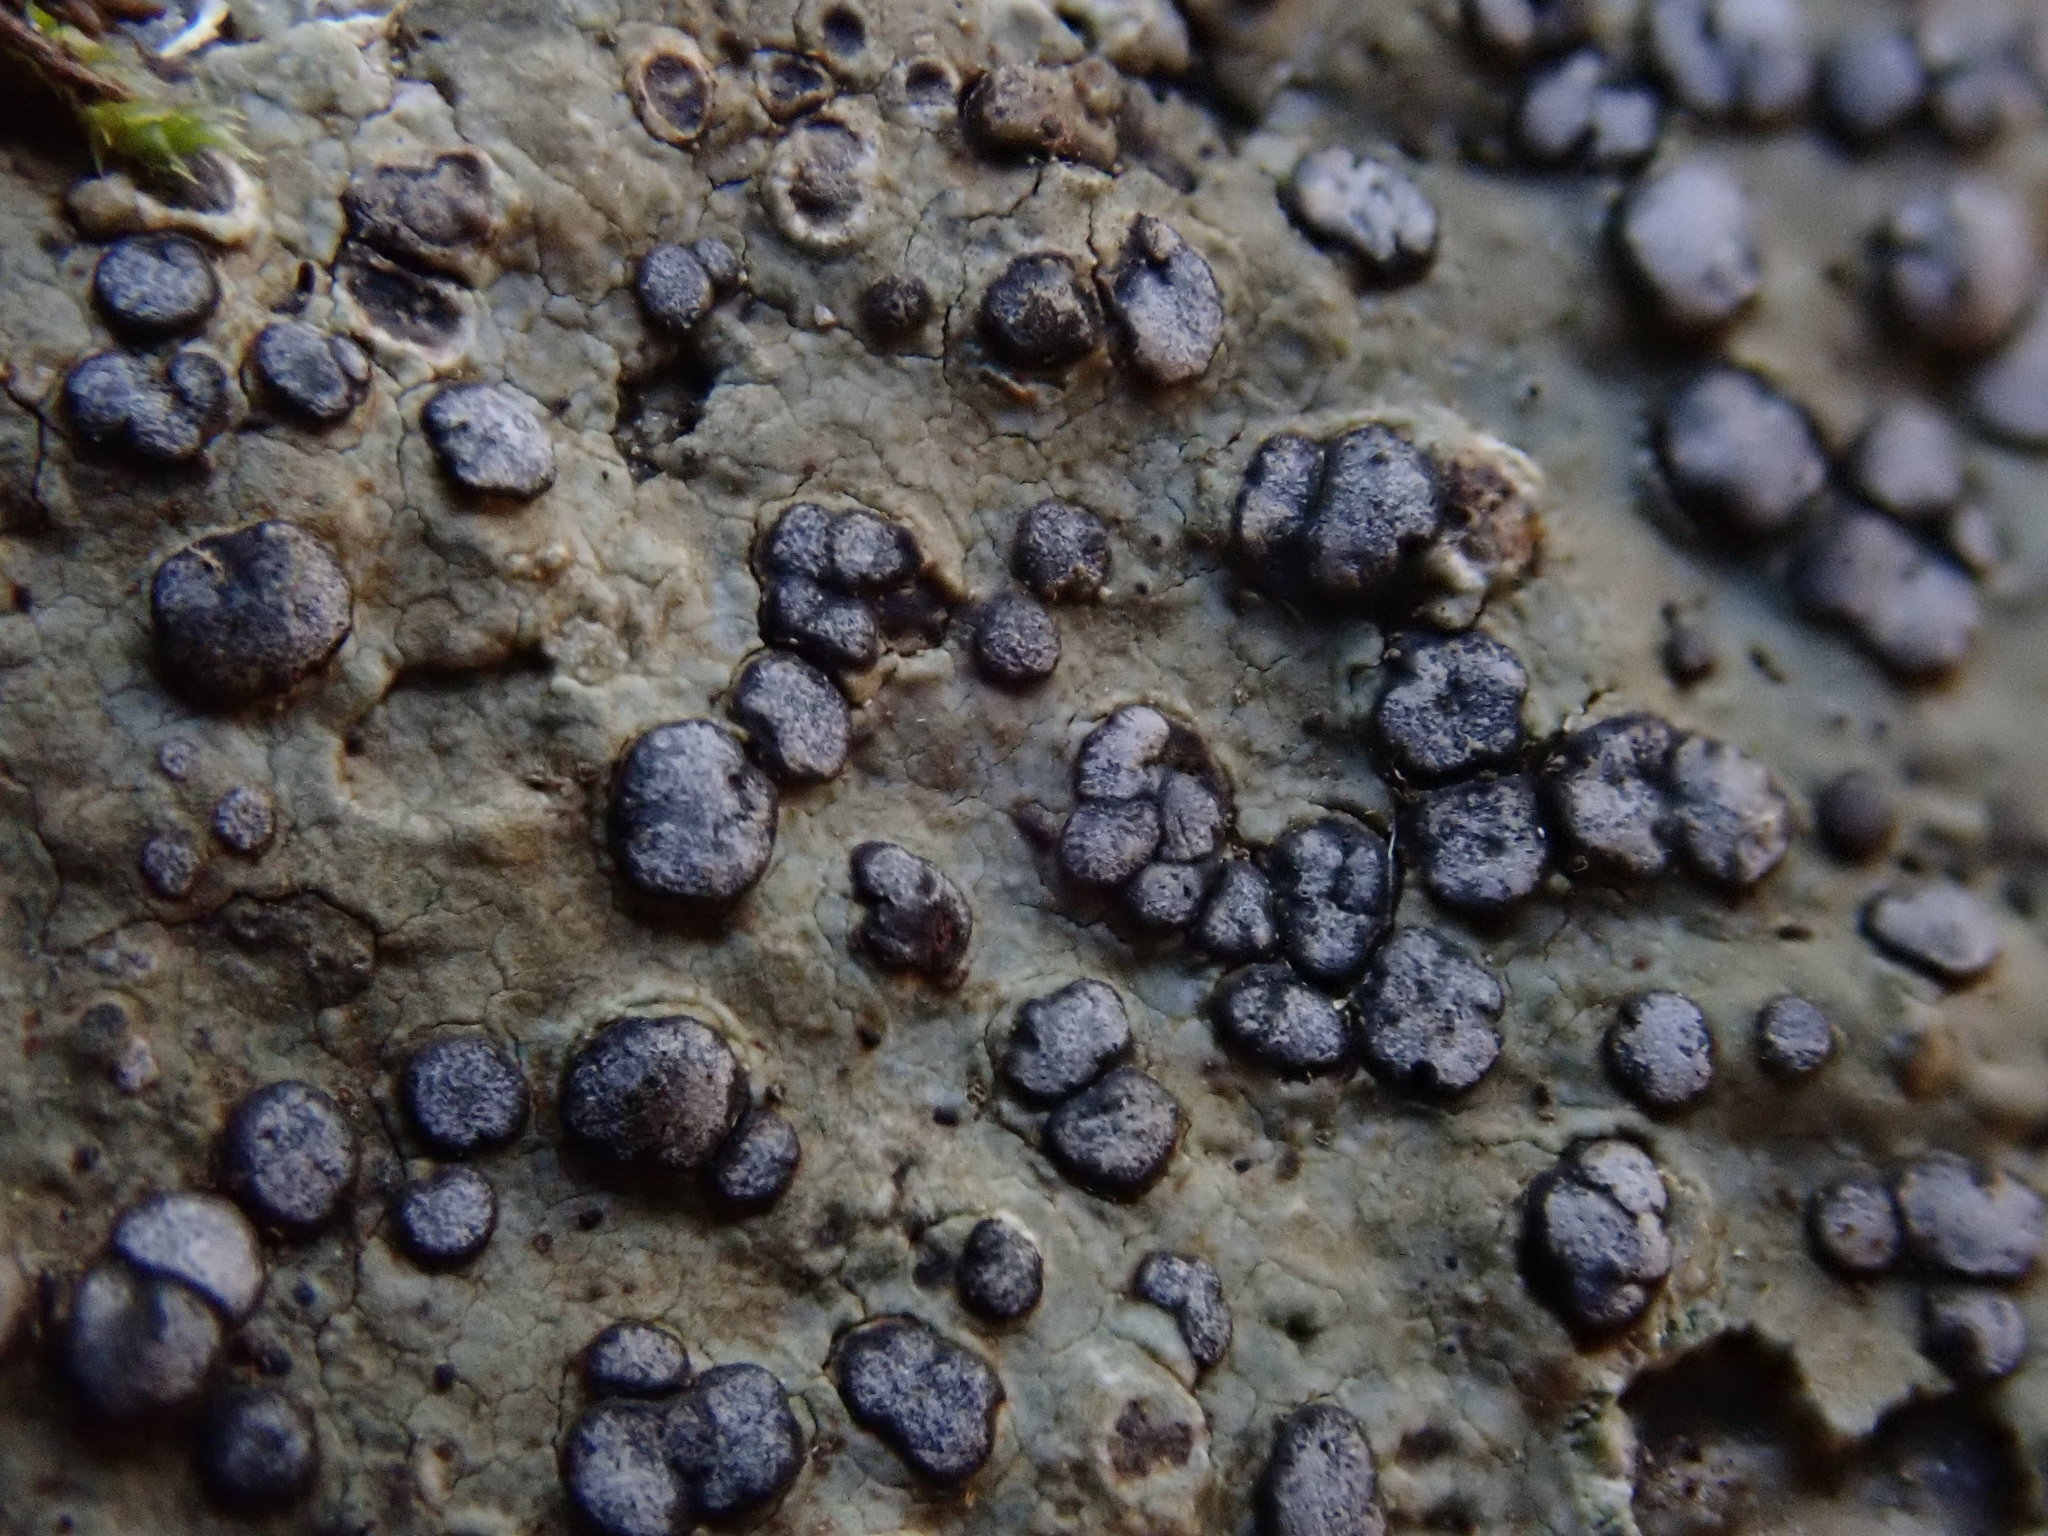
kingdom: Fungi
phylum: Ascomycota
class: Lecanoromycetes
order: Lecideales
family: Lecideaceae
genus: Porpidia
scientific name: Porpidia albocaerulescens
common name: Smokey-eyed boulder lichen
